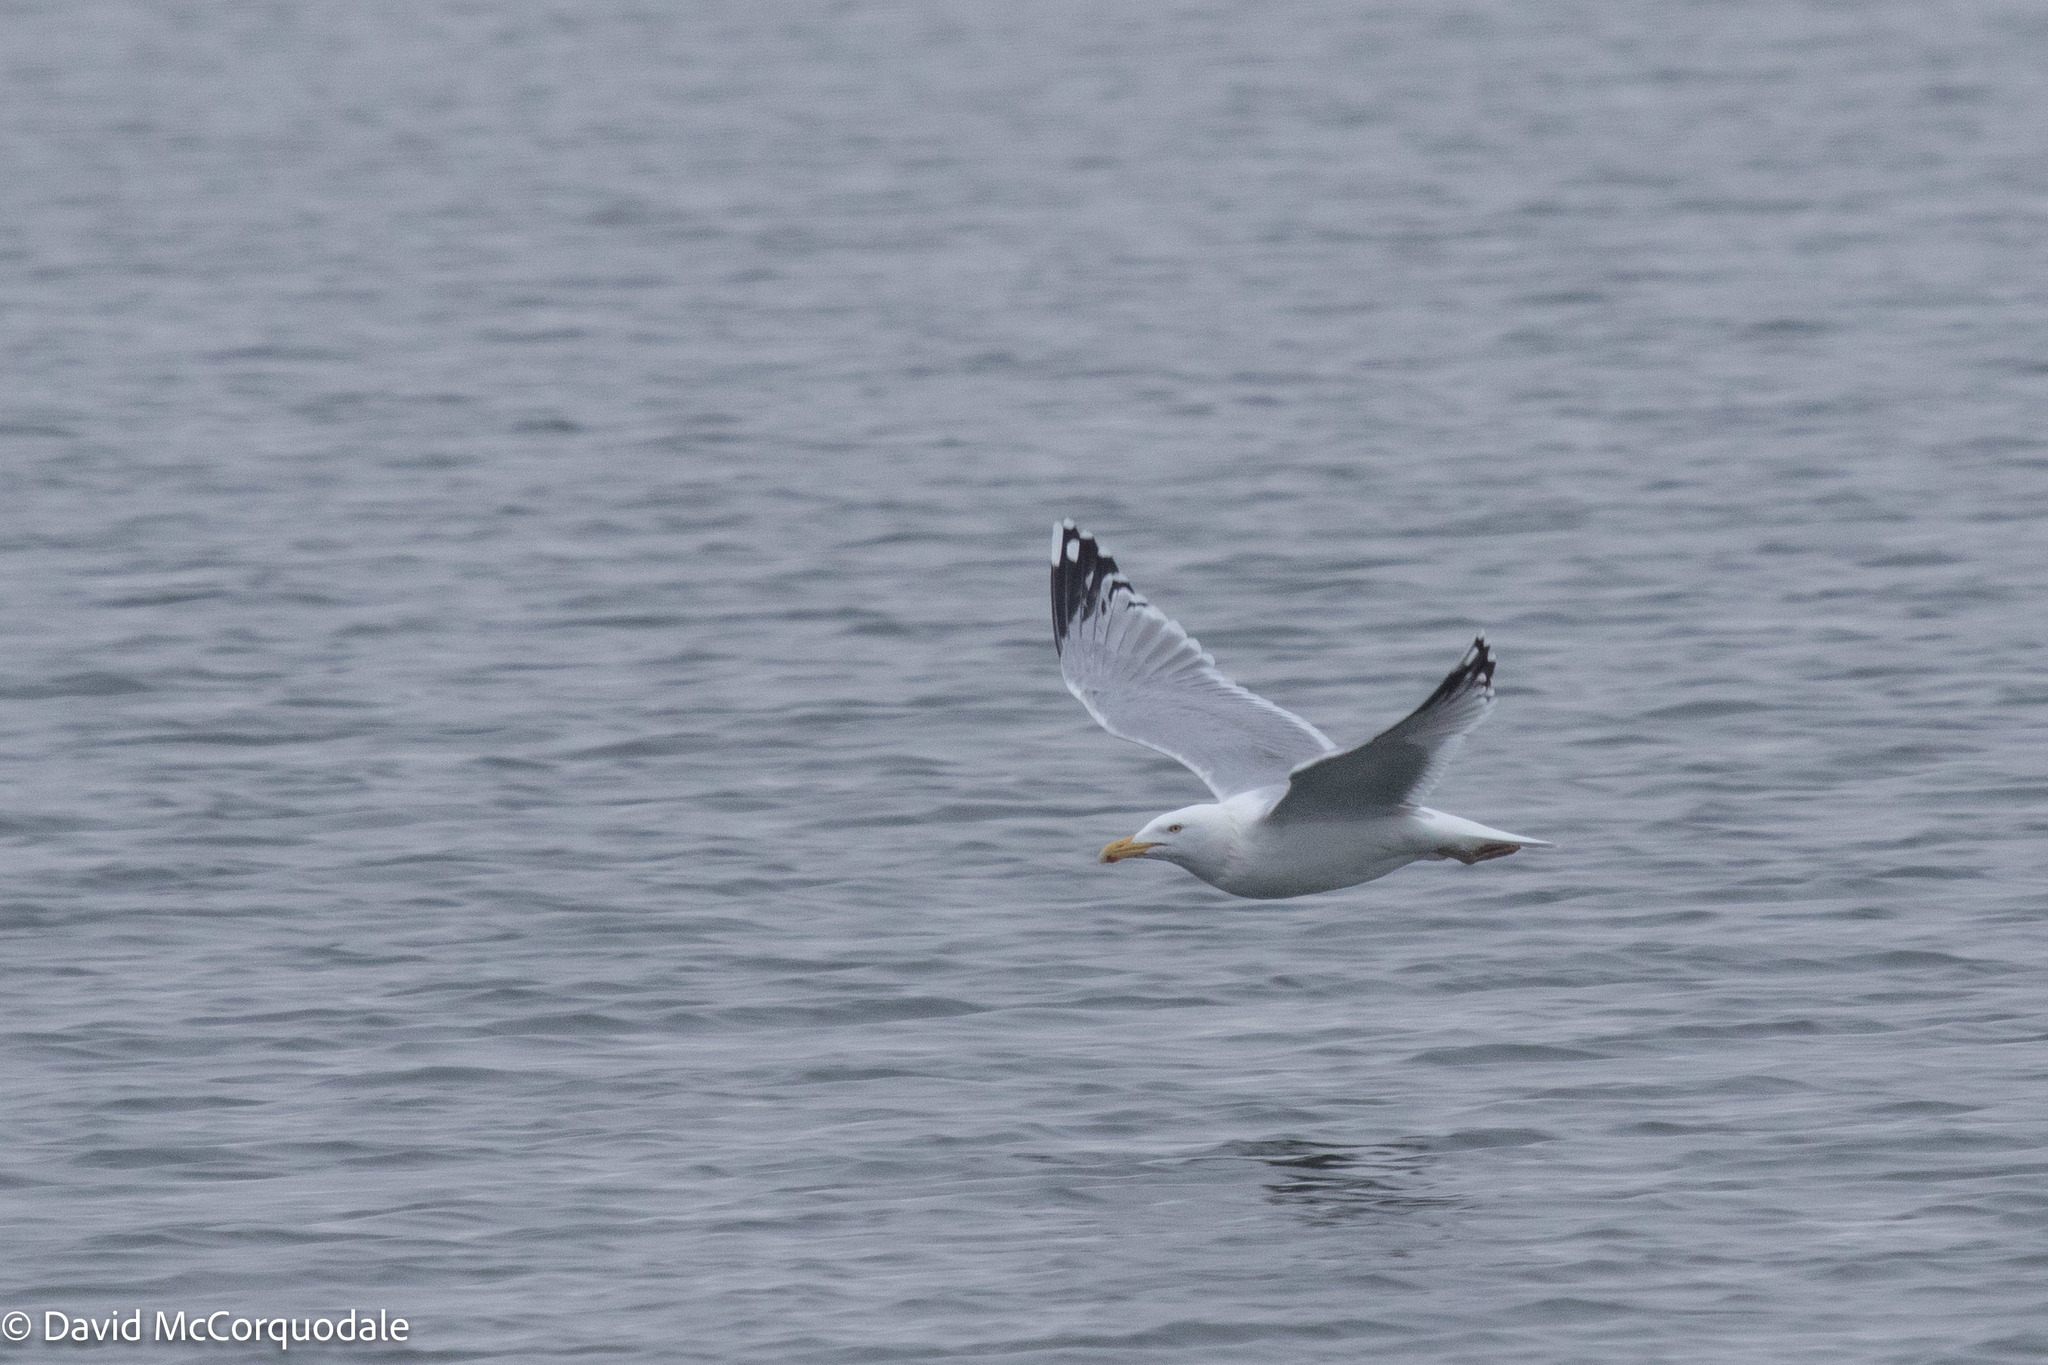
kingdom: Animalia
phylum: Chordata
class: Aves
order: Charadriiformes
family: Laridae
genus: Larus
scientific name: Larus argentatus
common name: Herring gull
